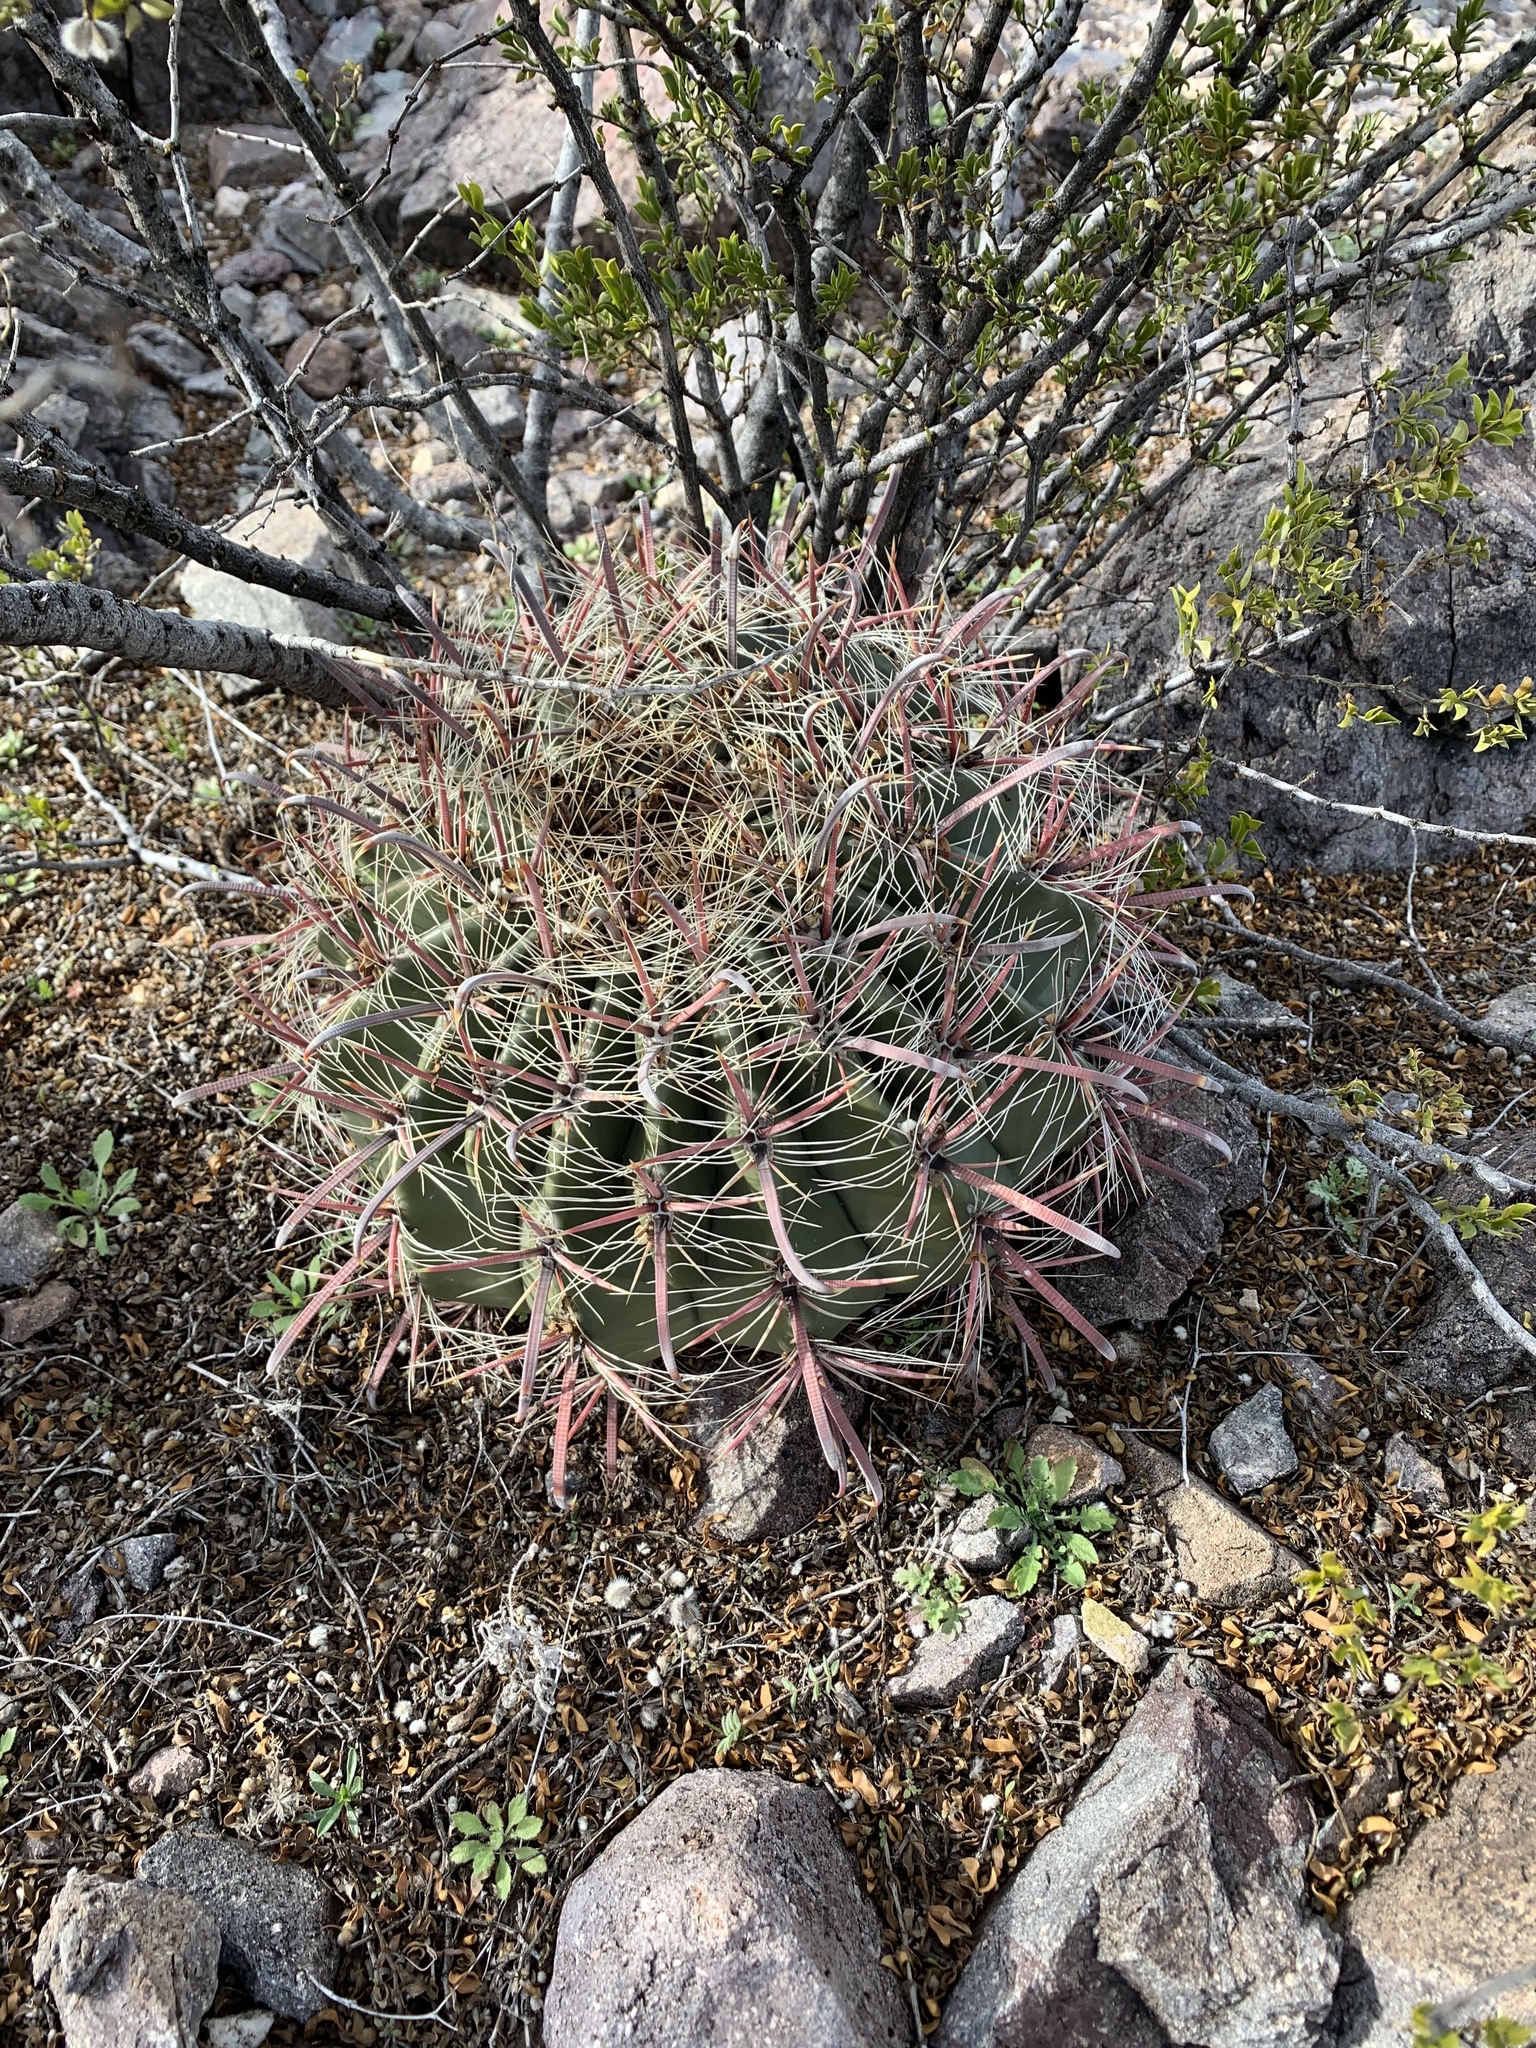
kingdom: Plantae
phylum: Tracheophyta
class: Magnoliopsida
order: Caryophyllales
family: Cactaceae
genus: Ferocactus
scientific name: Ferocactus wislizeni
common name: Candy barrel cactus
